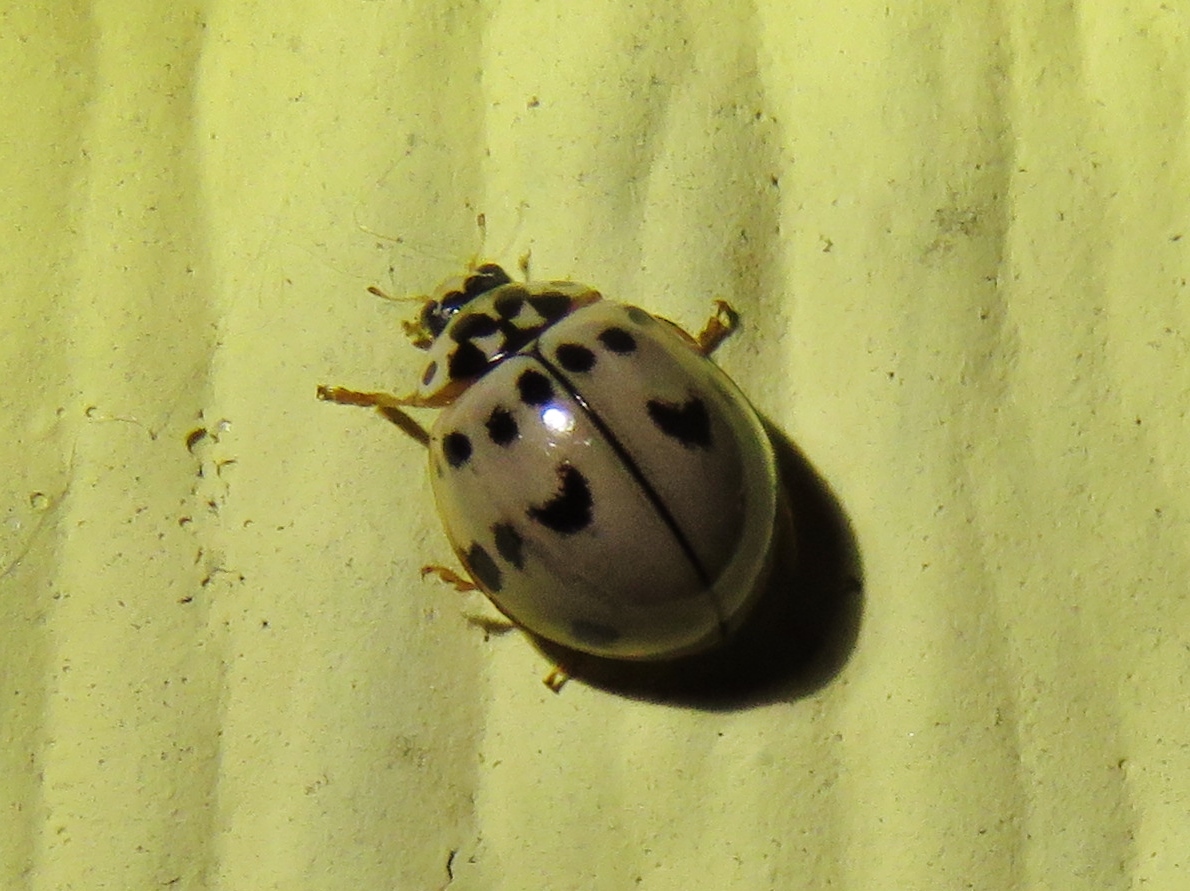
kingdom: Animalia
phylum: Arthropoda
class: Insecta
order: Coleoptera
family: Coccinellidae
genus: Olla
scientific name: Olla v-nigrum
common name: Ashy gray lady beetle
